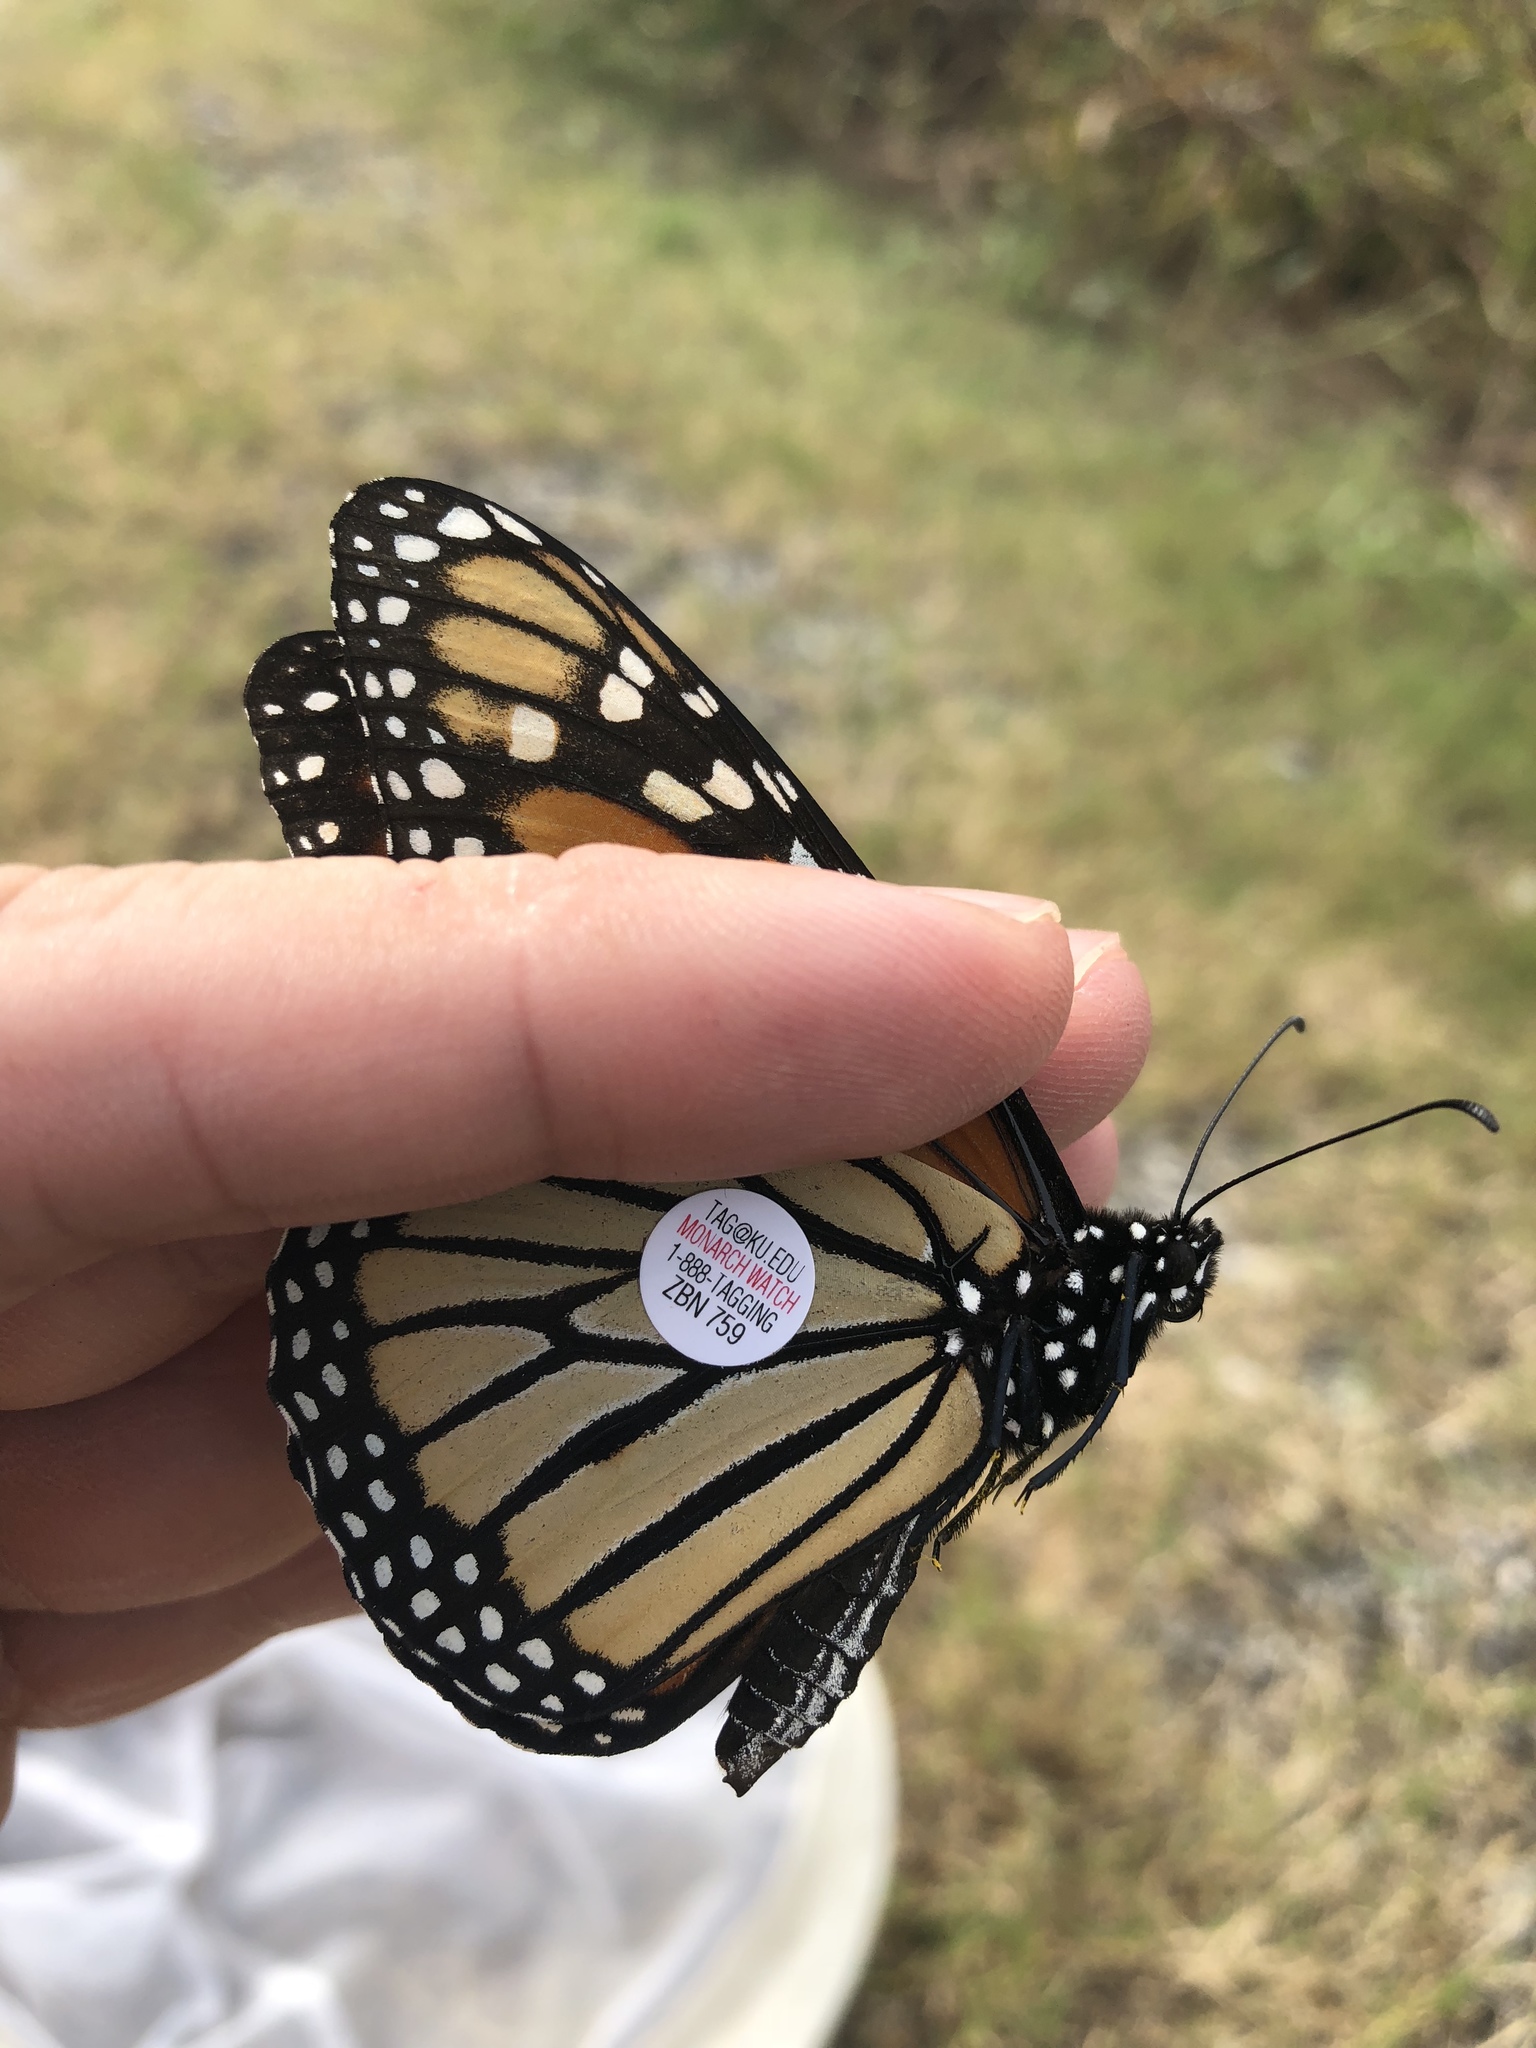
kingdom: Animalia
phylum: Arthropoda
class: Insecta
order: Lepidoptera
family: Nymphalidae
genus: Danaus
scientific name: Danaus plexippus
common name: Monarch
